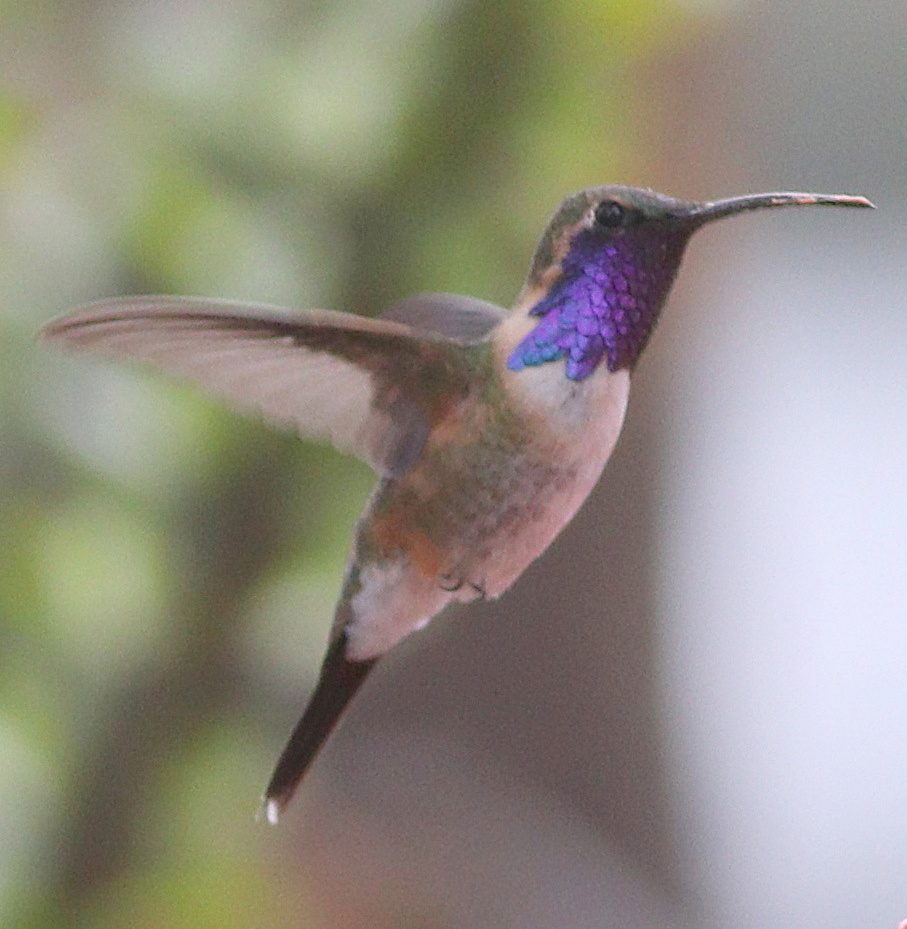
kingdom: Animalia
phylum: Chordata
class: Aves
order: Apodiformes
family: Trochilidae
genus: Calothorax
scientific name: Calothorax lucifer
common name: Lucifer sheartail
